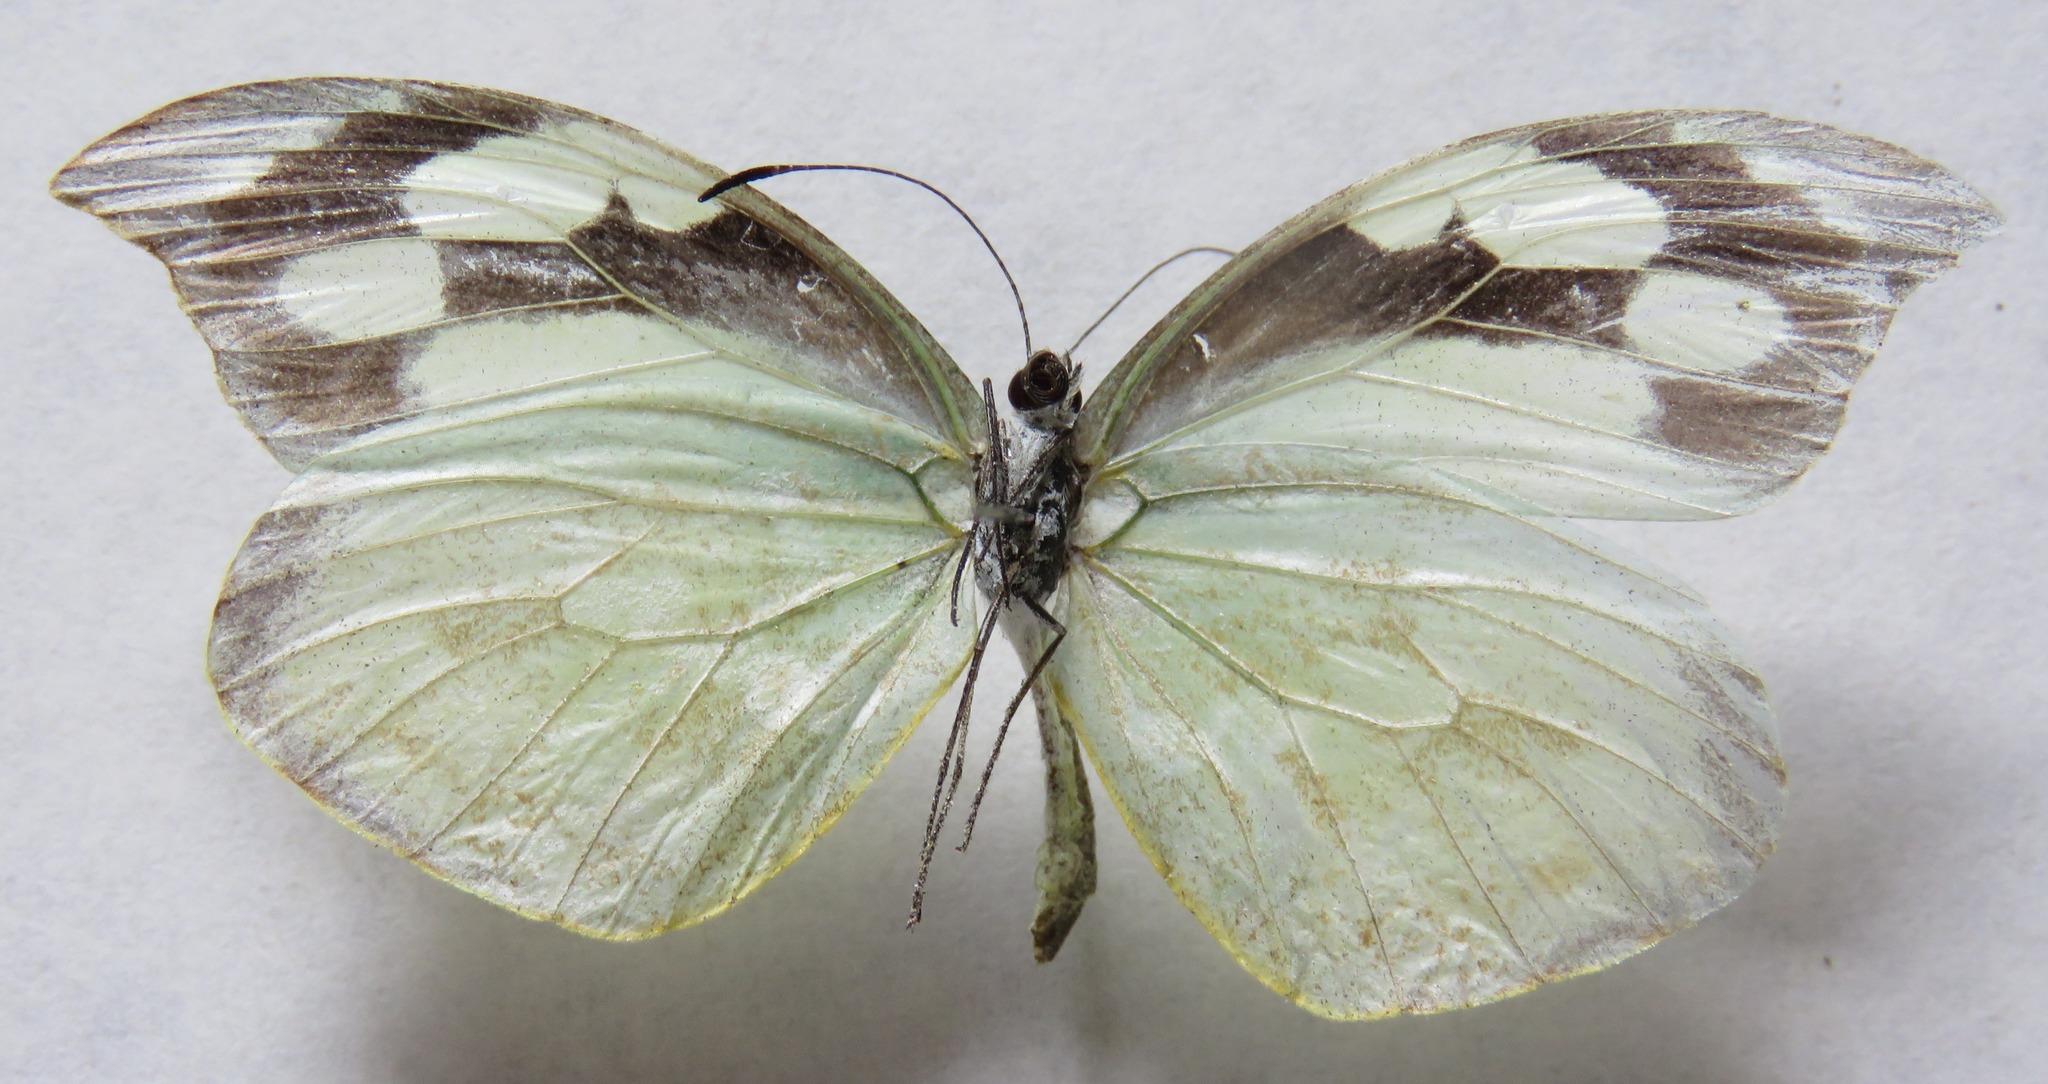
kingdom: Animalia
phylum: Arthropoda
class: Insecta
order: Lepidoptera
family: Pieridae
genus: Lieinix
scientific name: Lieinix nemesis
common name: Frosted mimic-white
